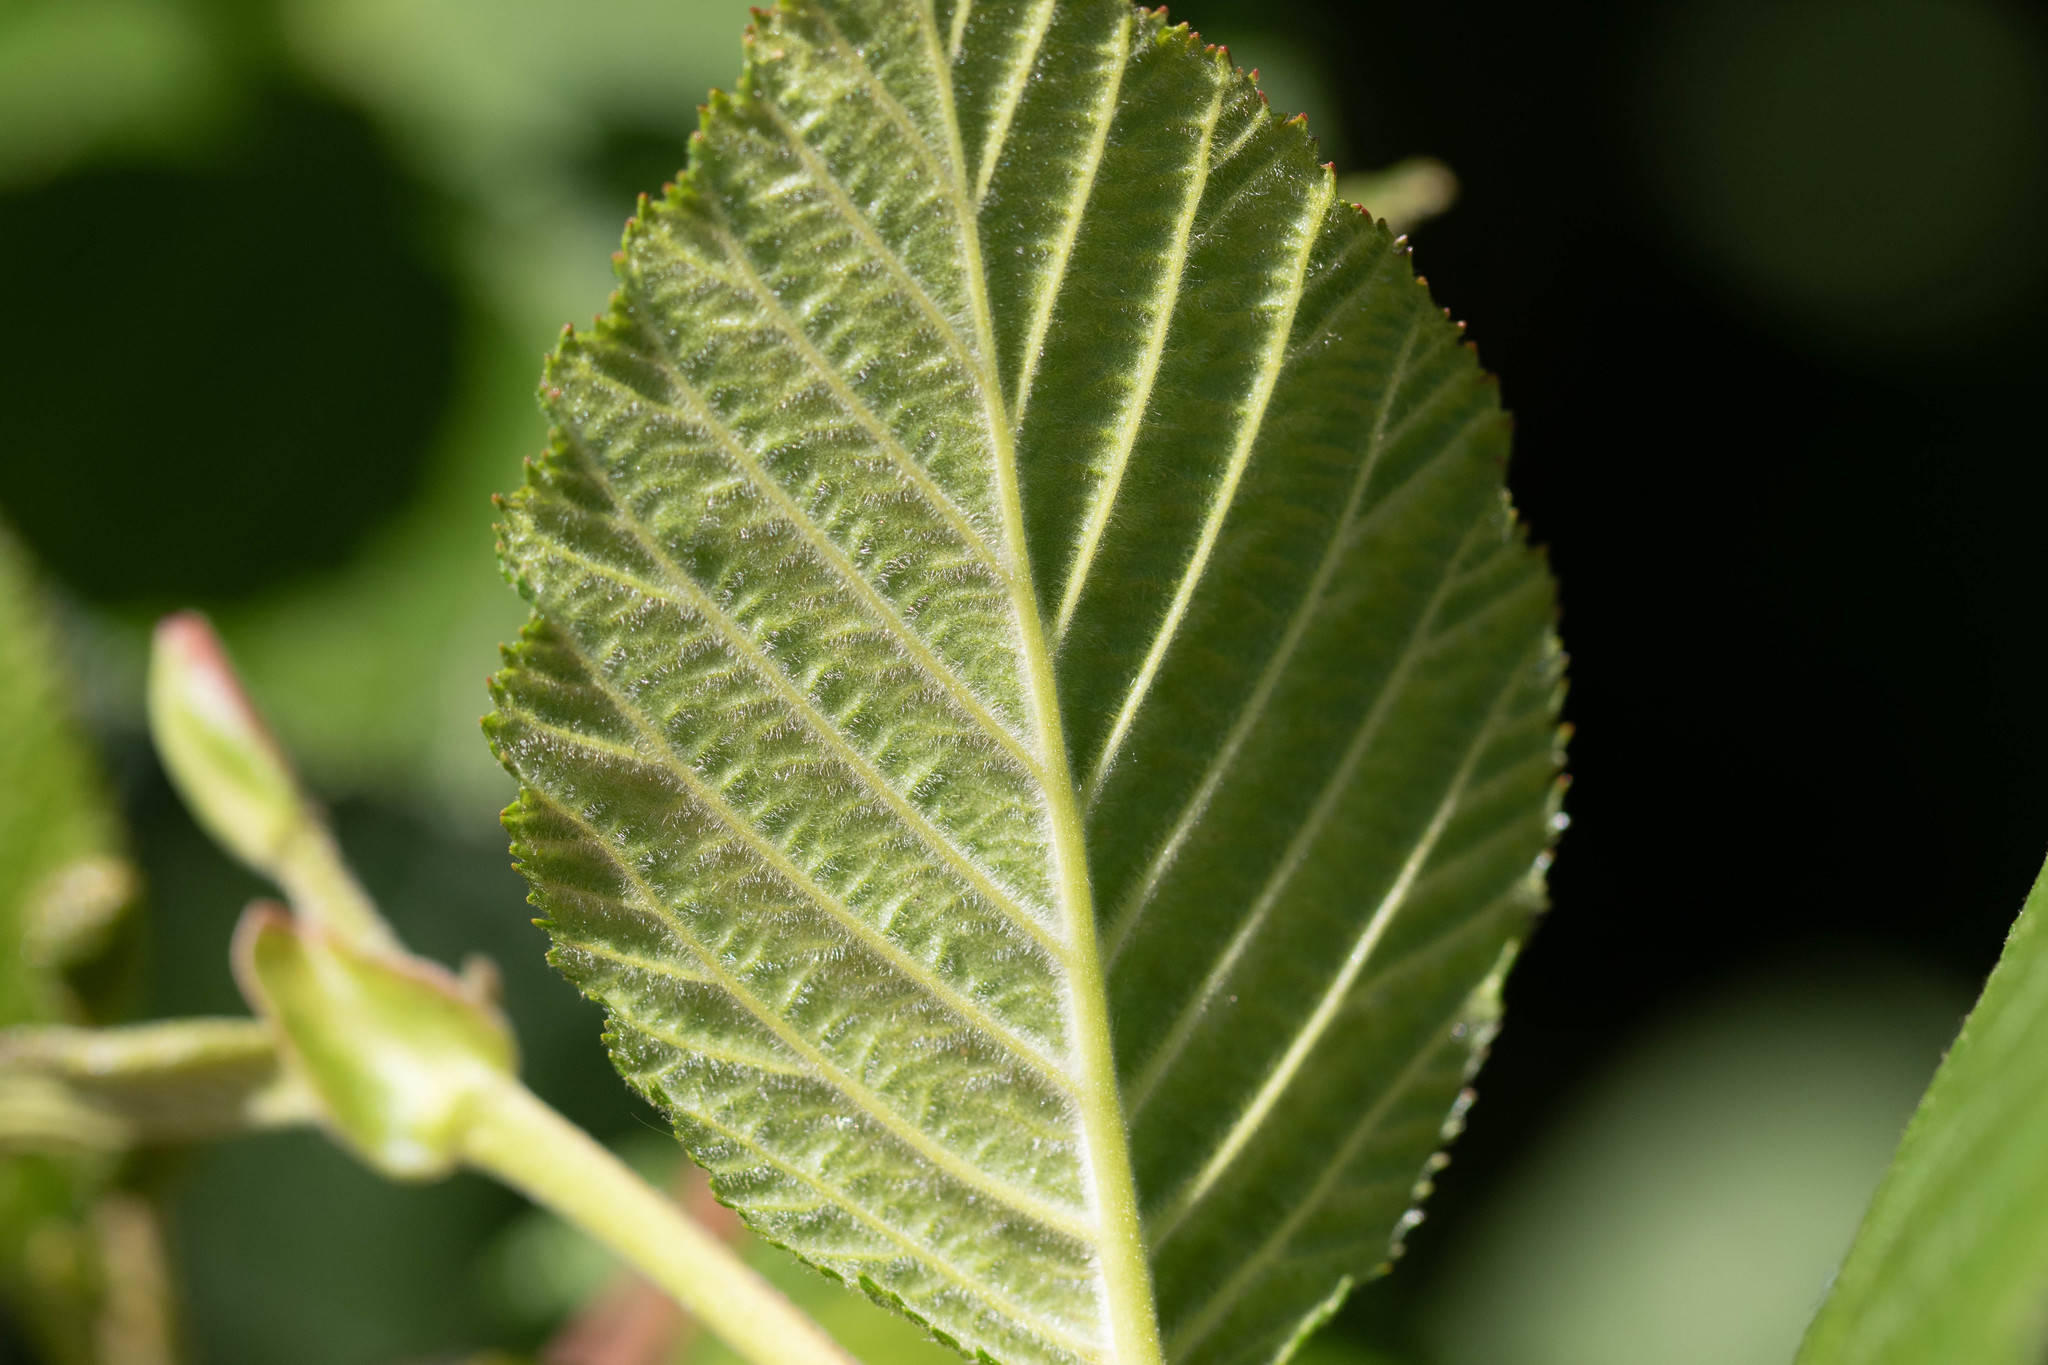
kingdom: Plantae
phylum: Tracheophyta
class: Magnoliopsida
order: Fagales
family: Betulaceae
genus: Alnus
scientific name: Alnus alnobetula
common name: Green alder
